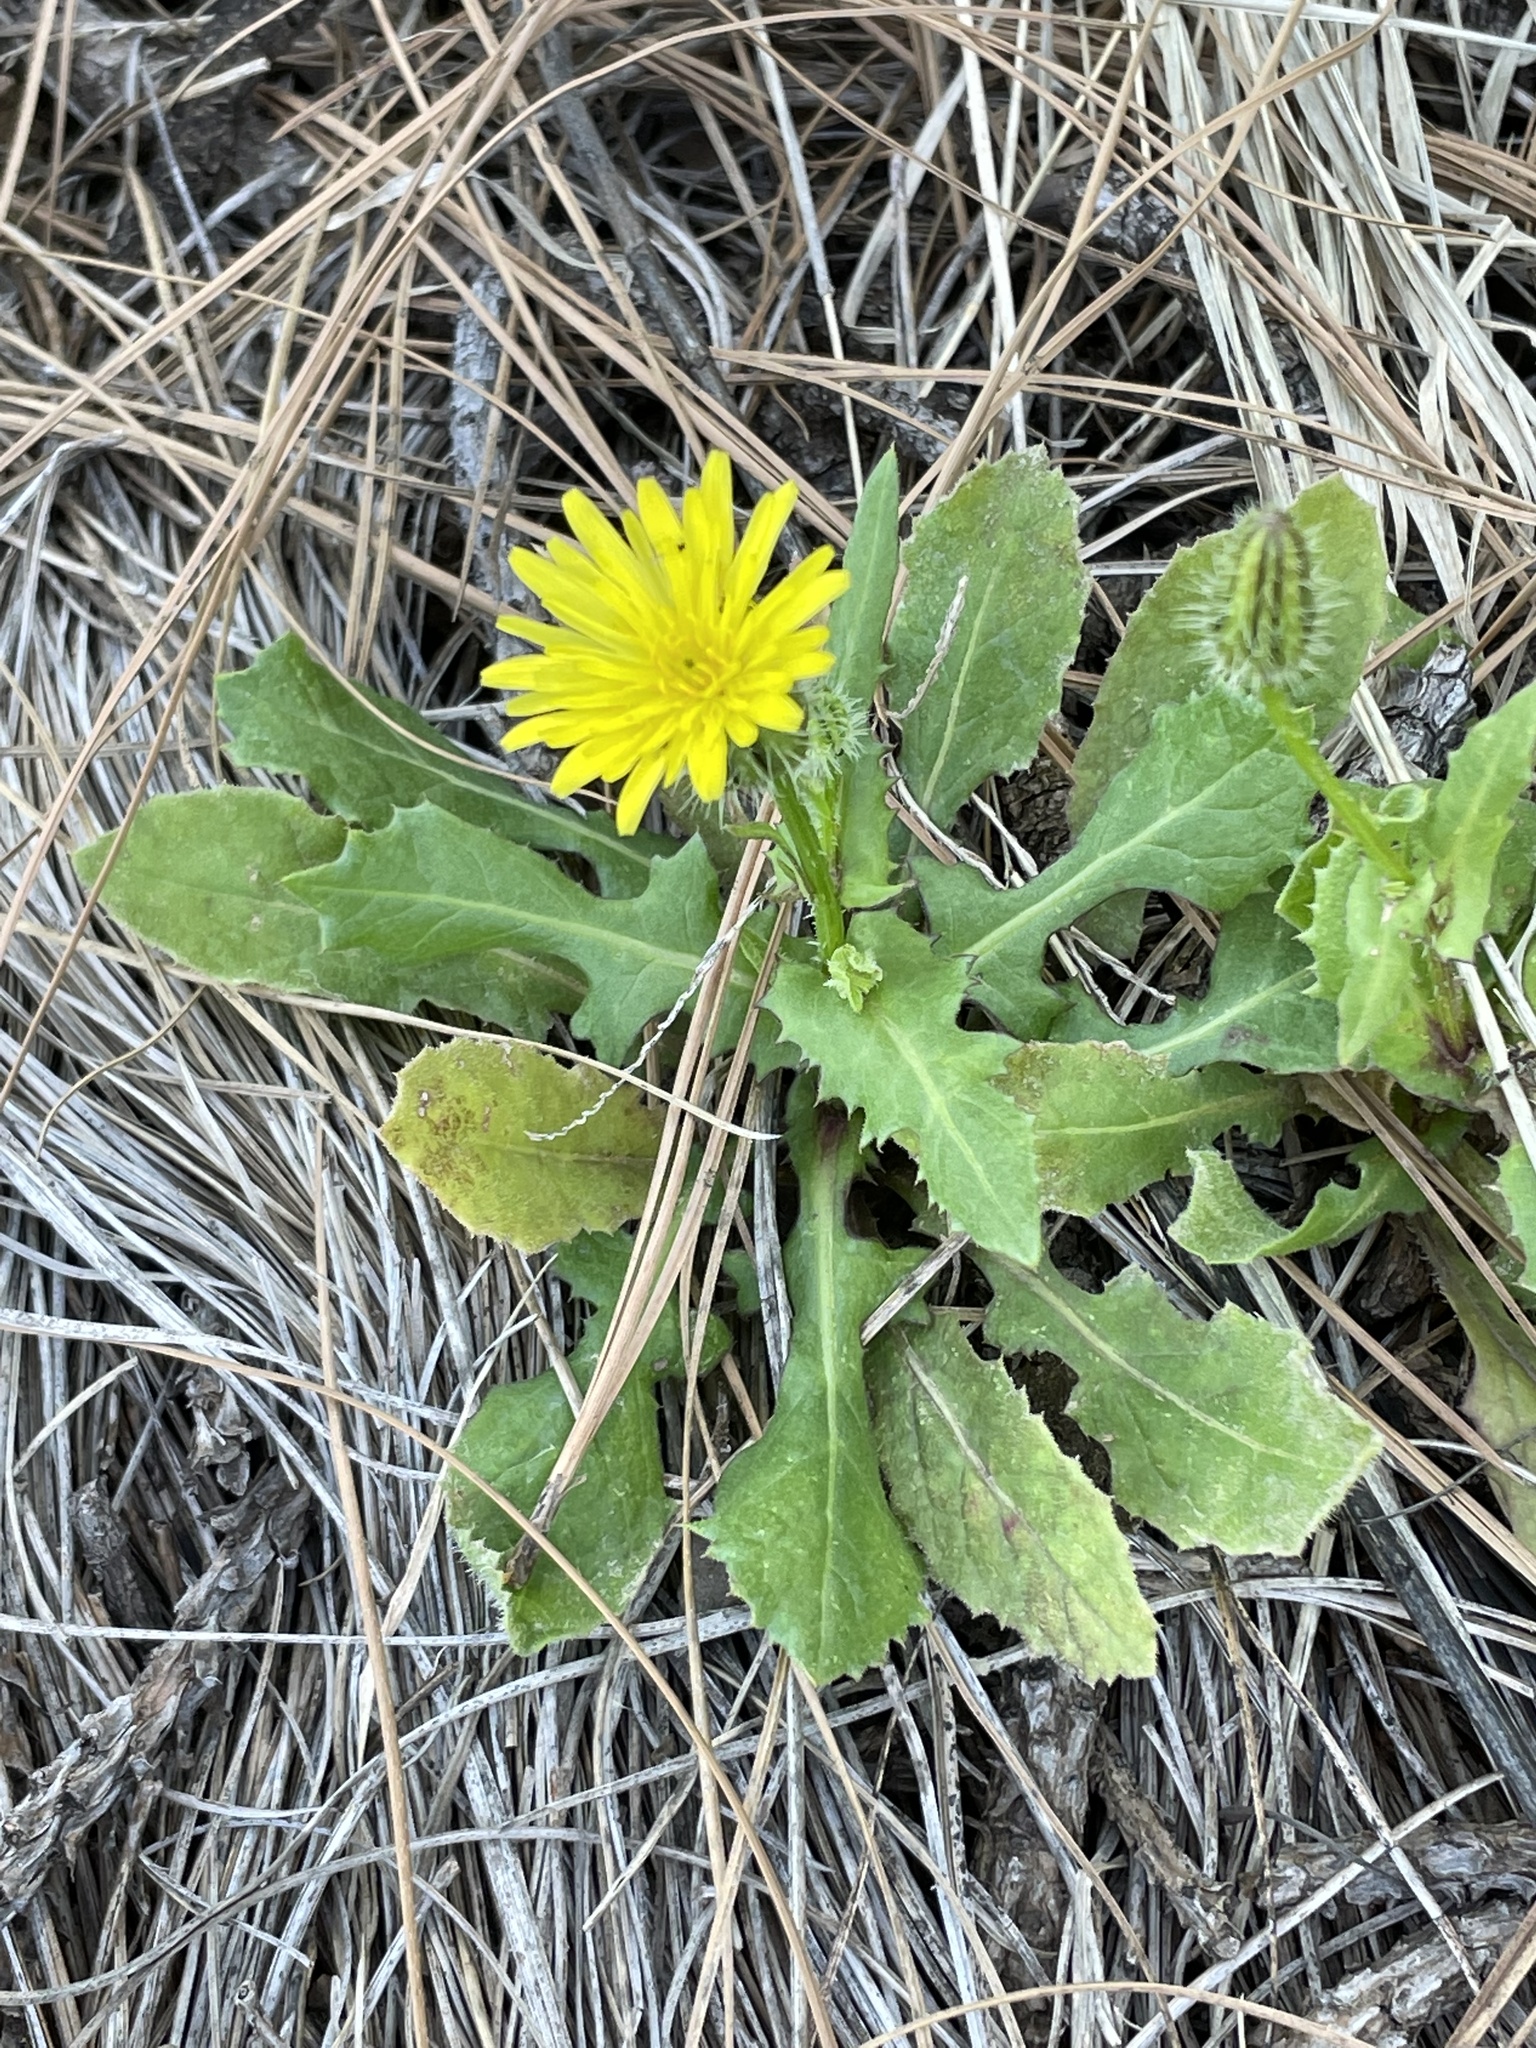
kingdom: Plantae
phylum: Tracheophyta
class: Magnoliopsida
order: Asterales
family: Asteraceae
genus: Urospermum
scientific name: Urospermum picroides
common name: False hawkbit
